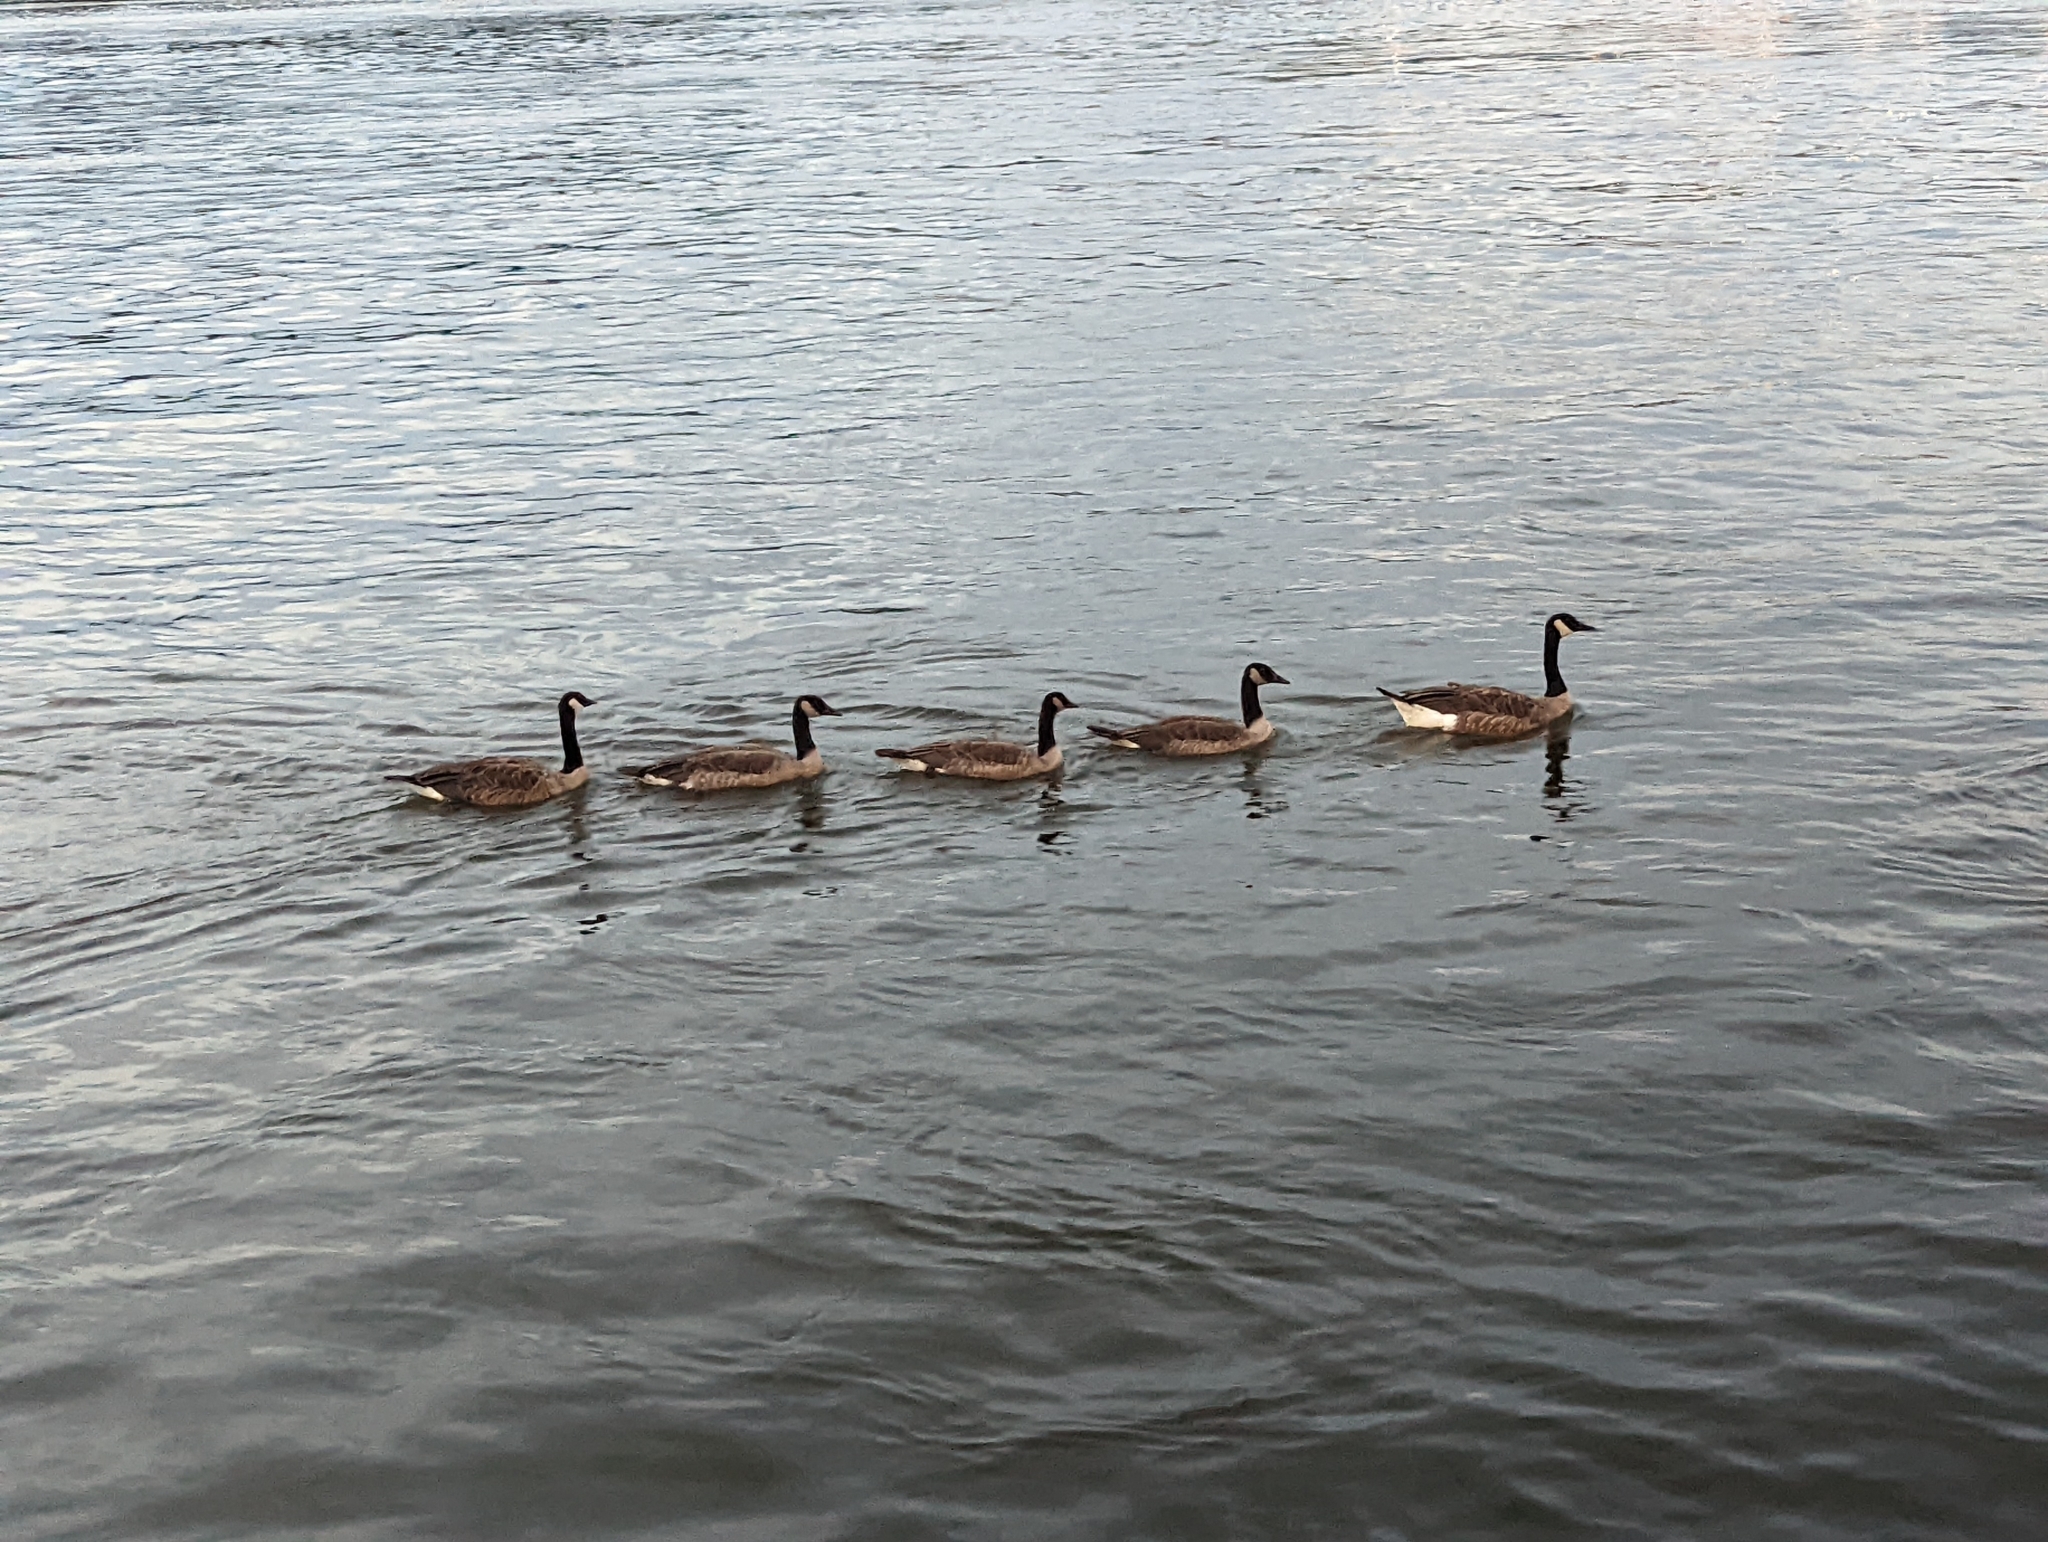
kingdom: Animalia
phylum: Chordata
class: Aves
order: Anseriformes
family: Anatidae
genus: Branta
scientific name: Branta canadensis
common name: Canada goose
